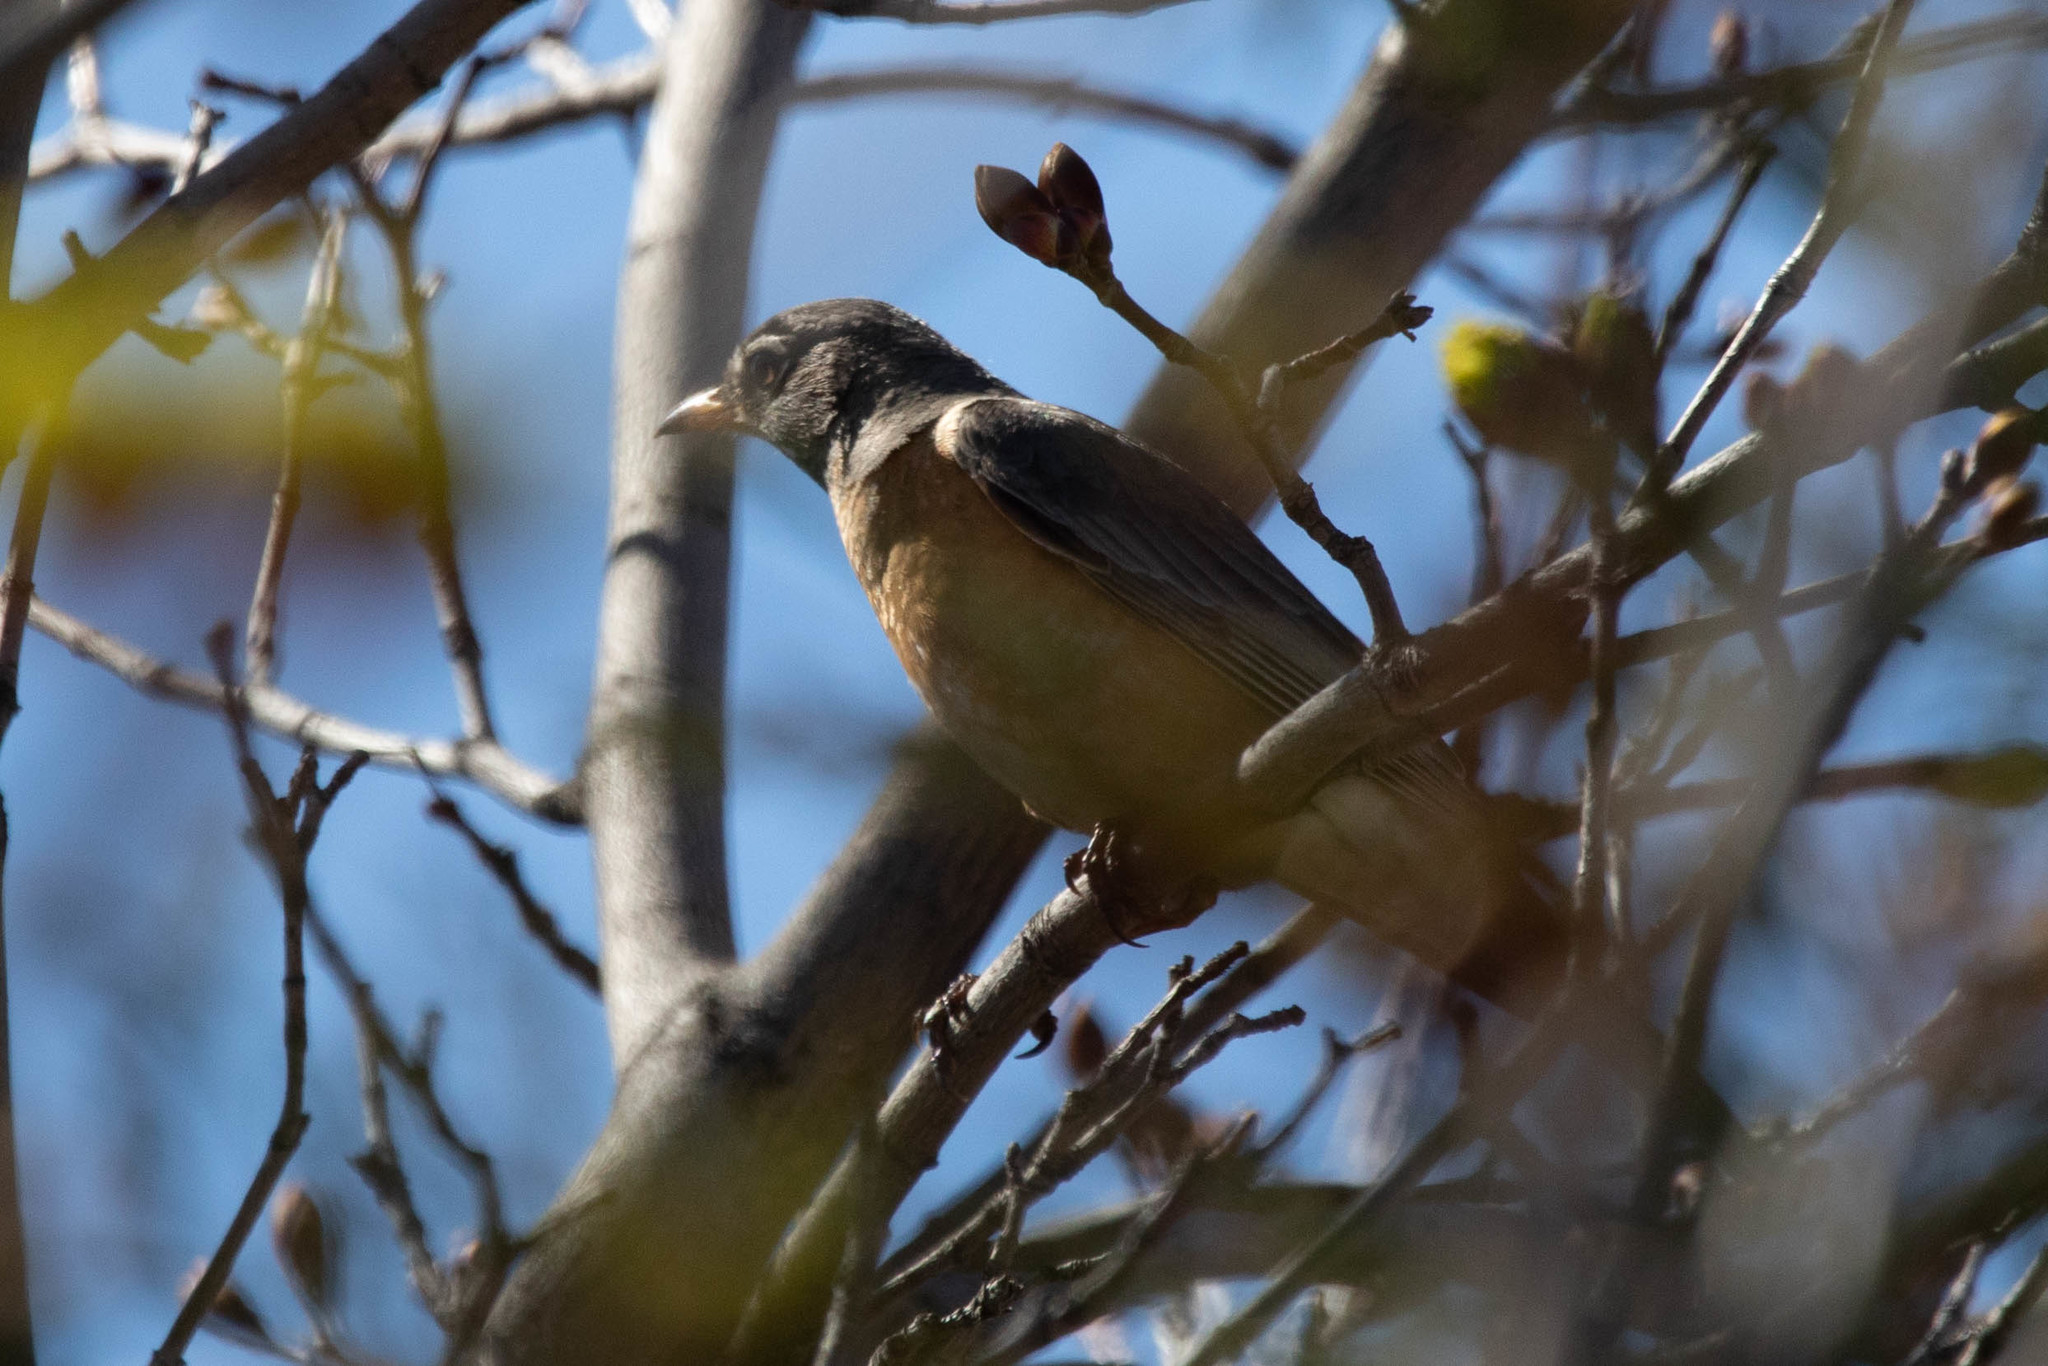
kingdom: Animalia
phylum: Chordata
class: Aves
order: Passeriformes
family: Turdidae
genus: Turdus
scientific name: Turdus migratorius
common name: American robin
